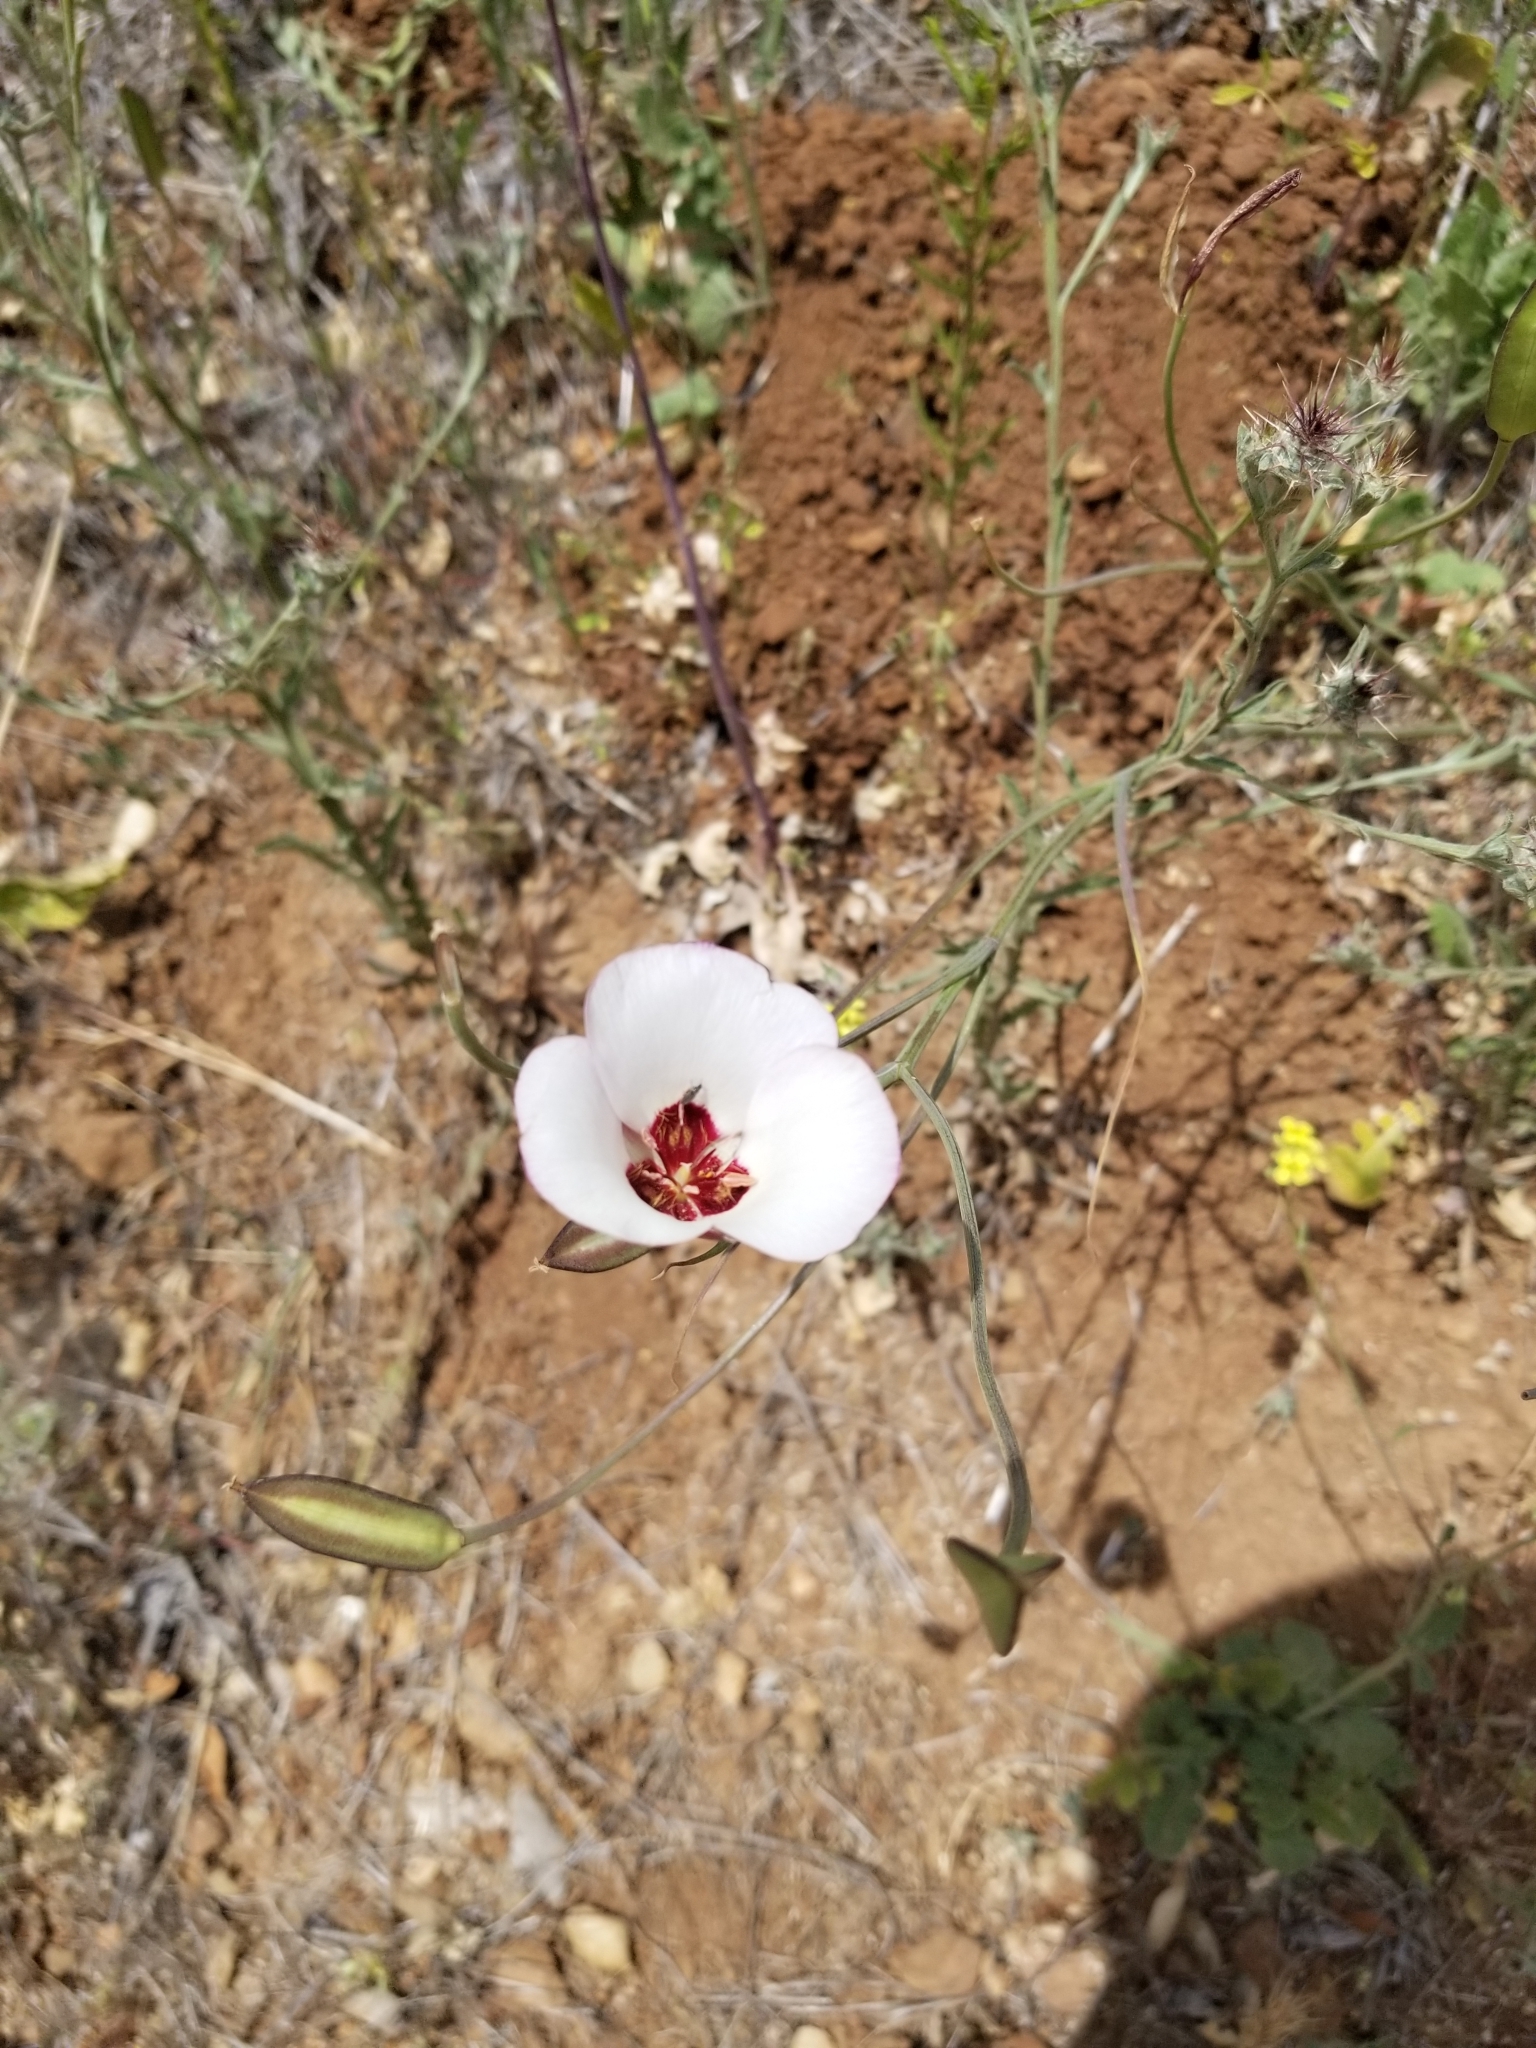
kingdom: Plantae
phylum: Tracheophyta
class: Liliopsida
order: Liliales
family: Liliaceae
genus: Calochortus
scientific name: Calochortus catalinae
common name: Catalina mariposa-lily
